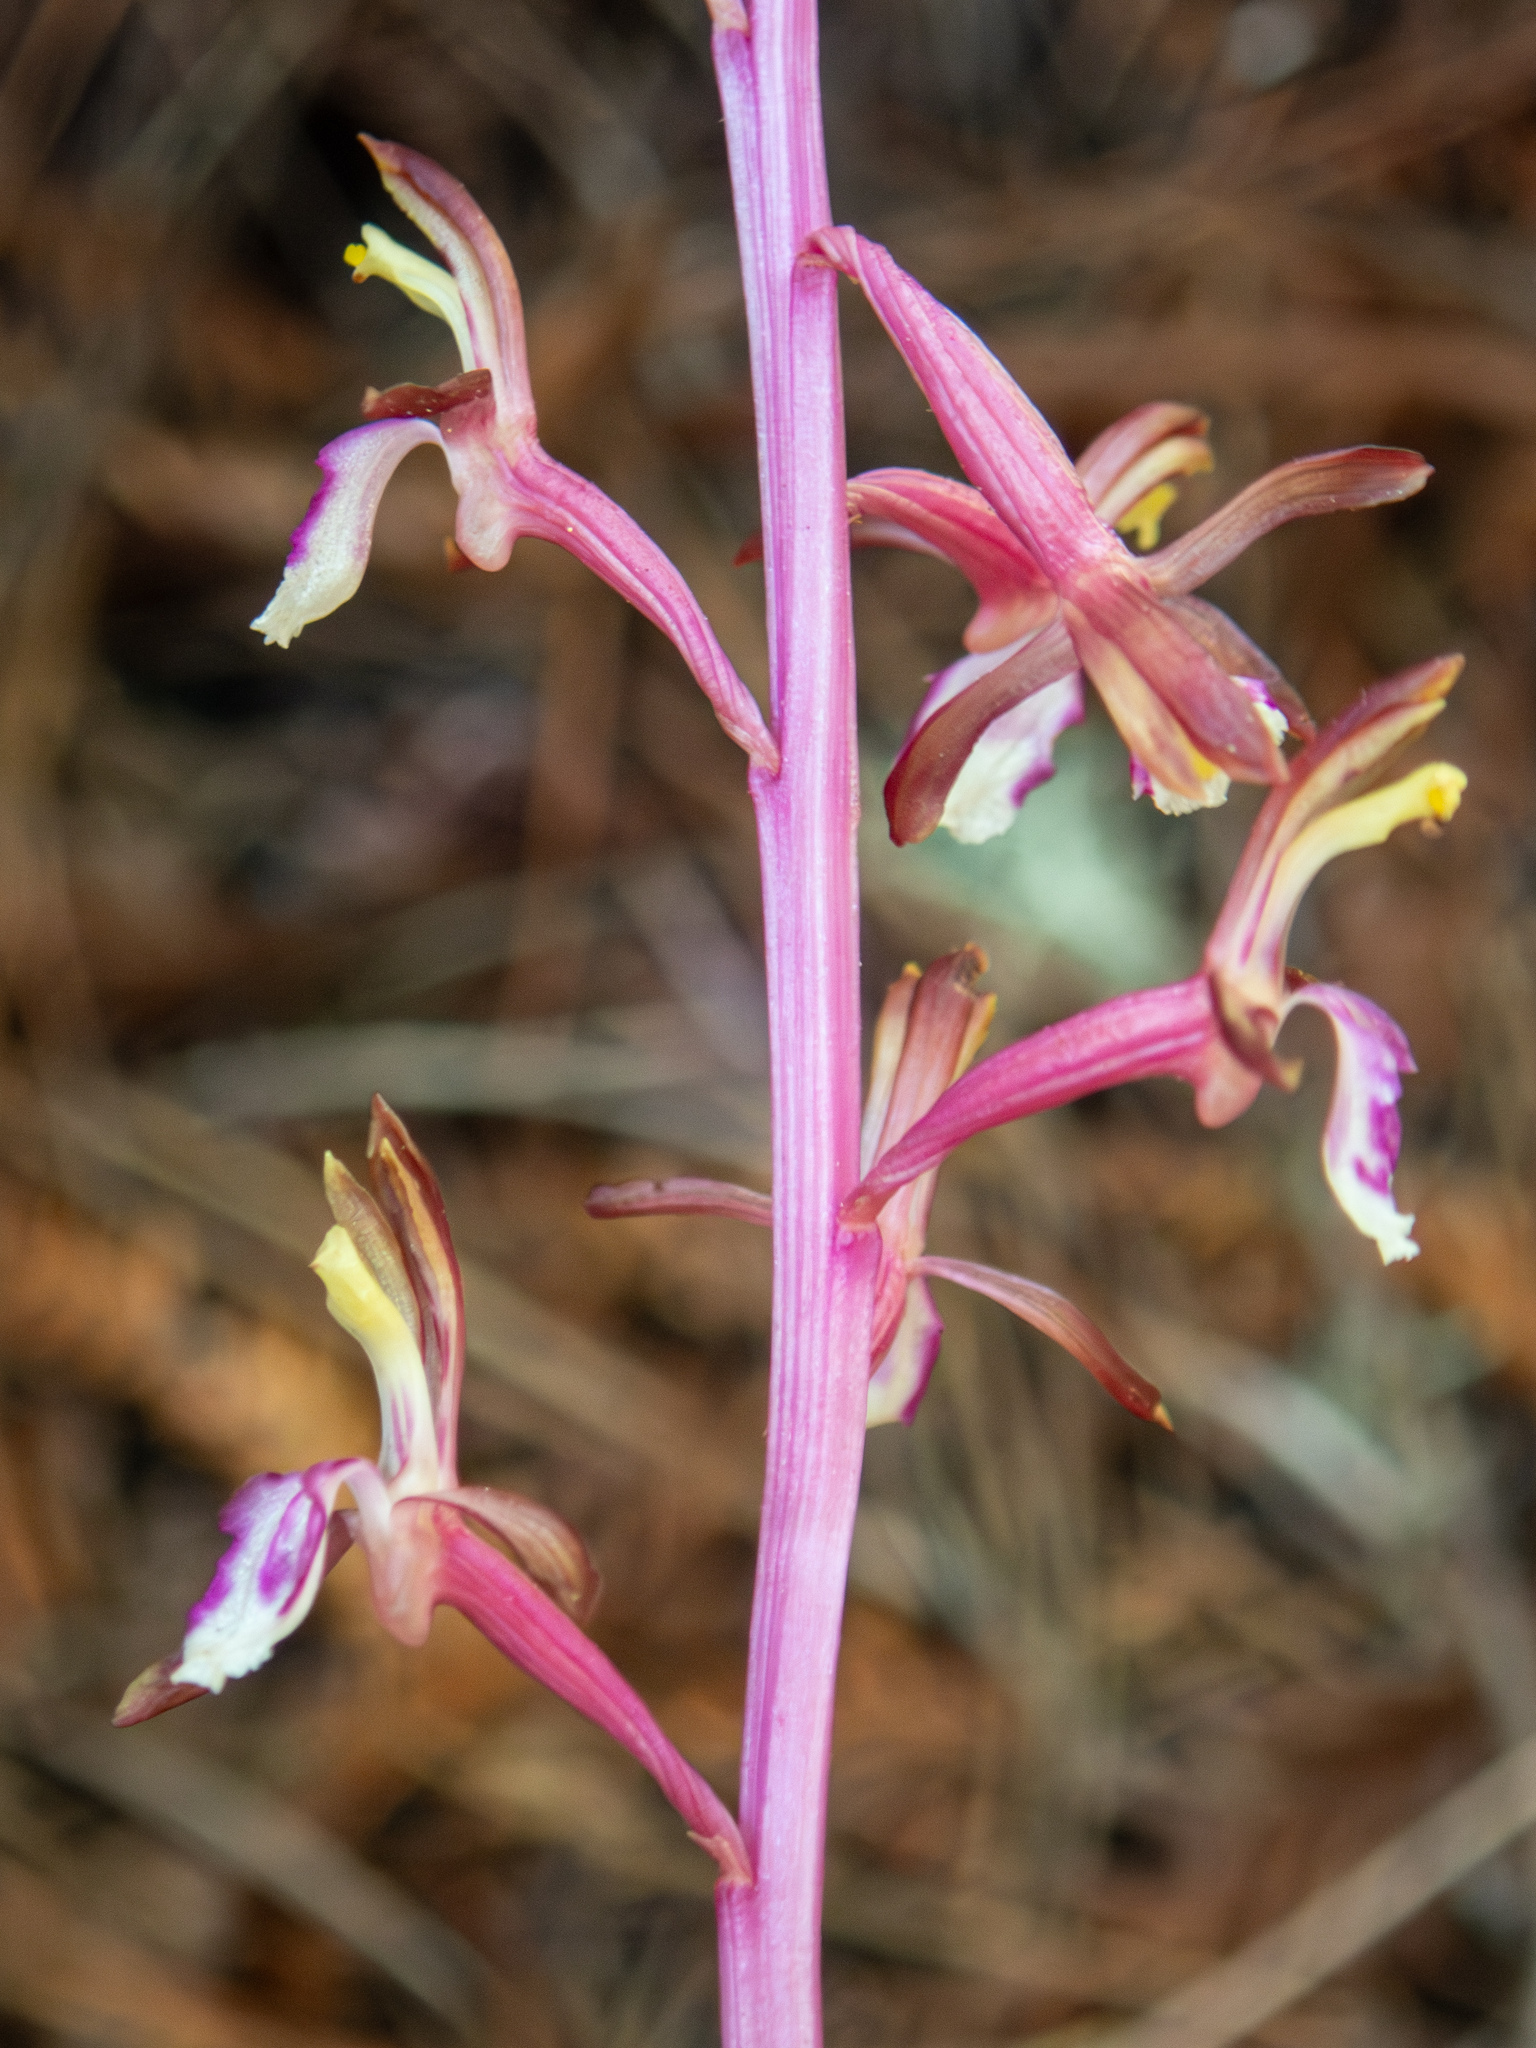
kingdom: Plantae
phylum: Tracheophyta
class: Liliopsida
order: Asparagales
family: Orchidaceae
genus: Corallorhiza
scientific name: Corallorhiza mertensiana
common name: Pacific coralroot
